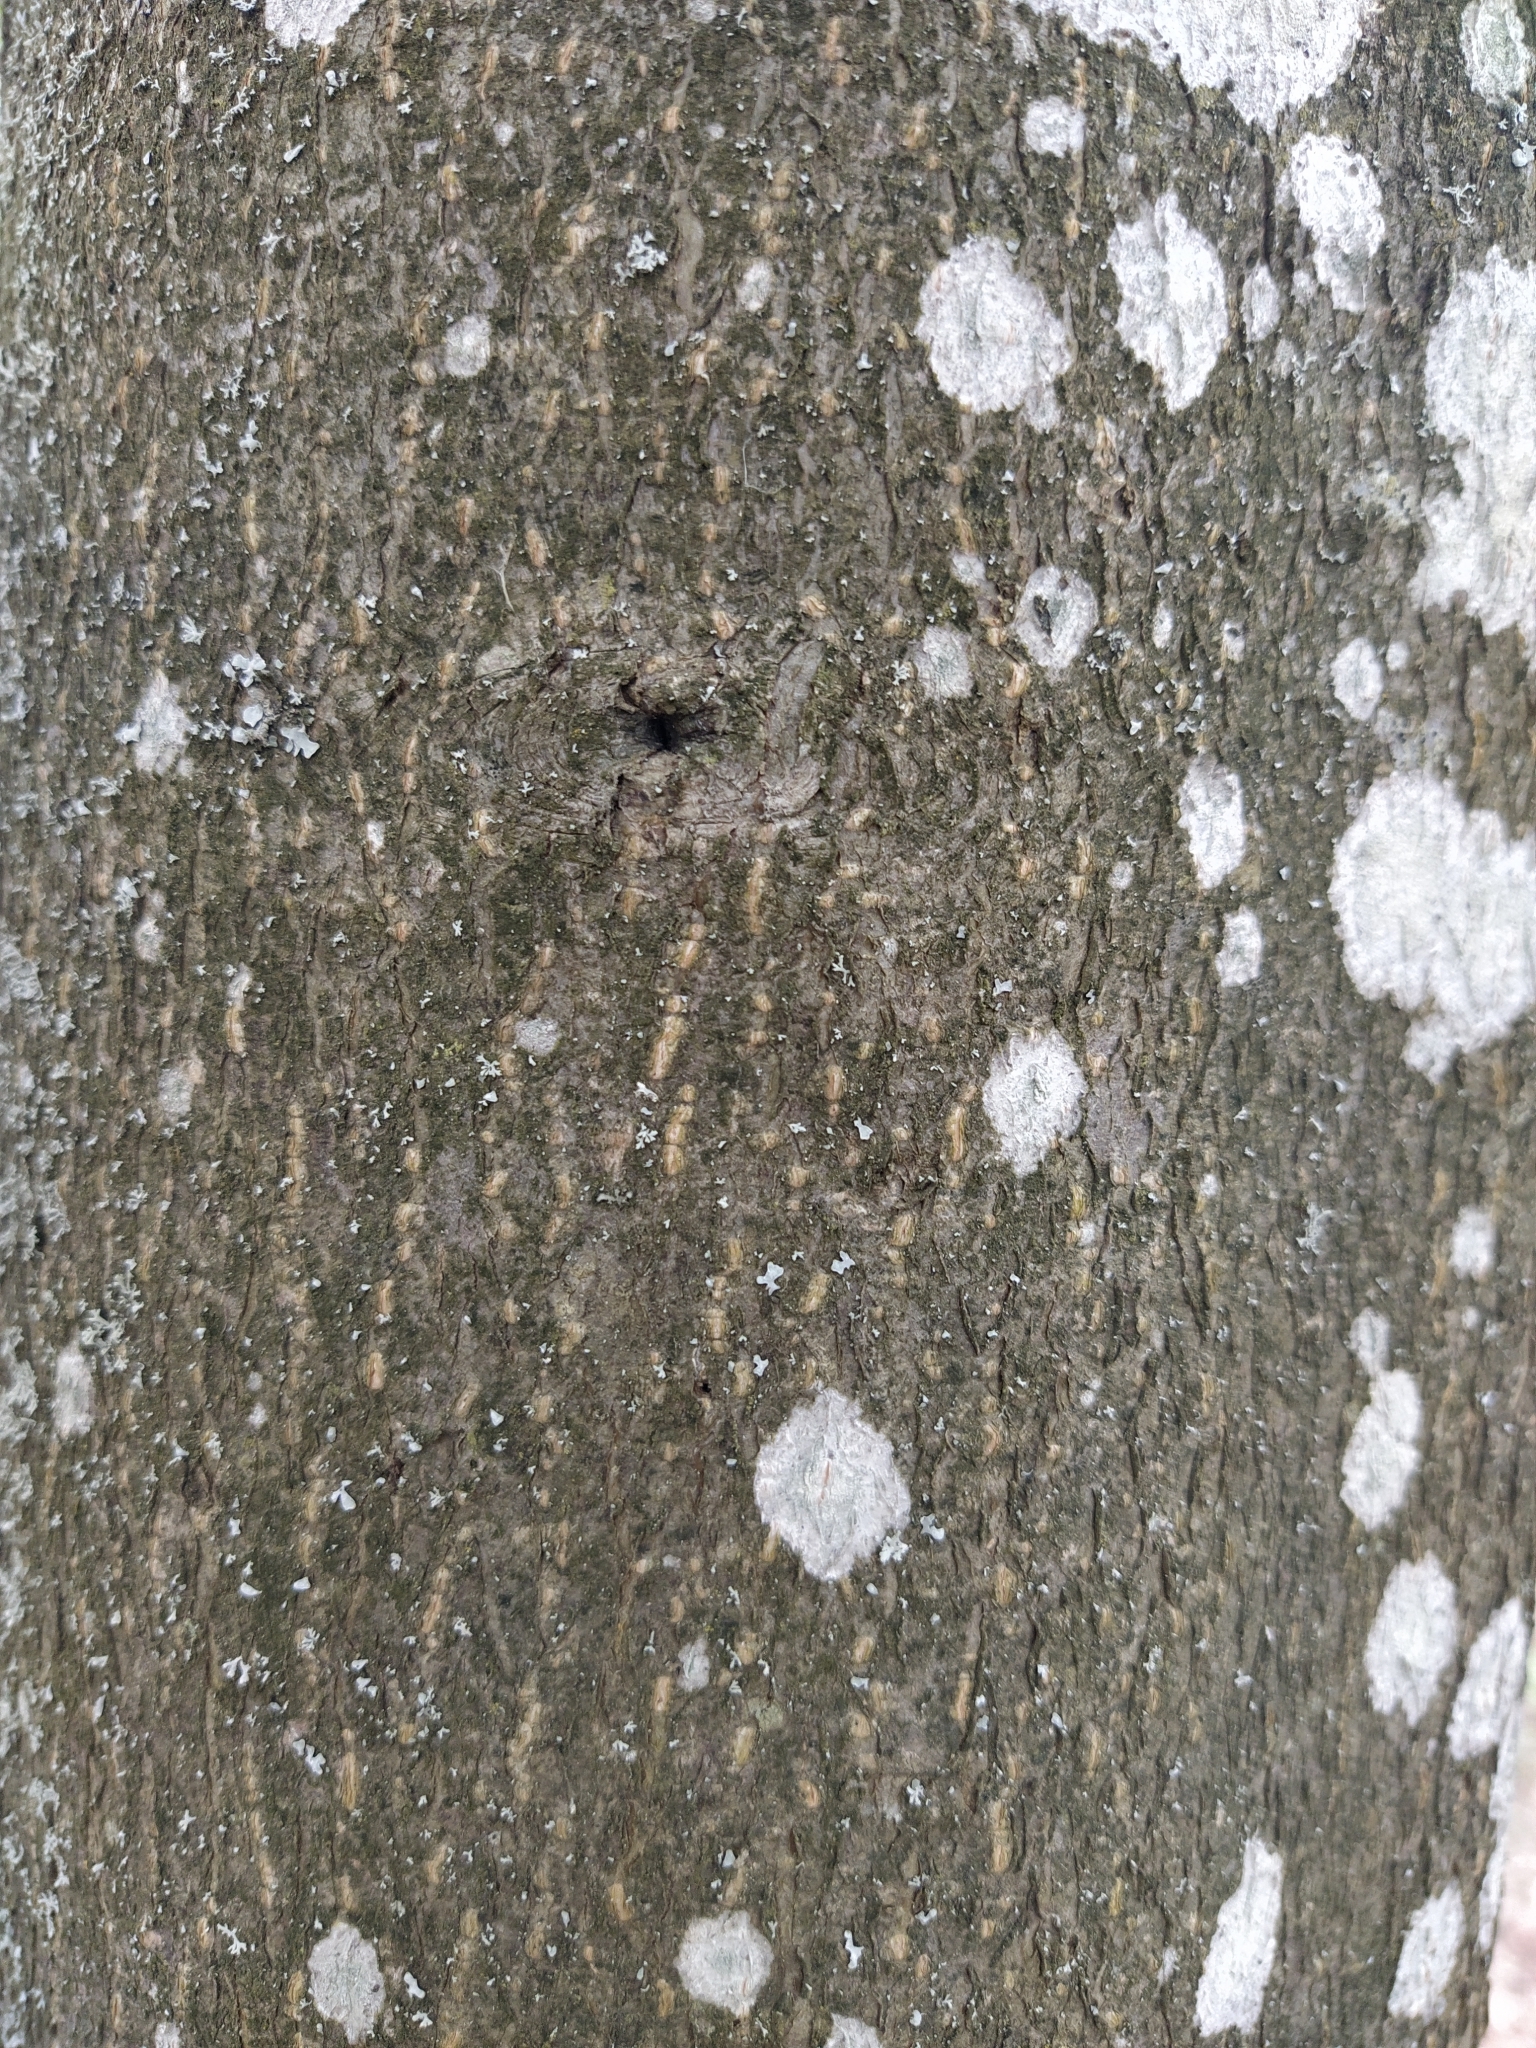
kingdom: Plantae
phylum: Tracheophyta
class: Magnoliopsida
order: Rosales
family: Rosaceae
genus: Prunus
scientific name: Prunus padus
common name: Bird cherry
